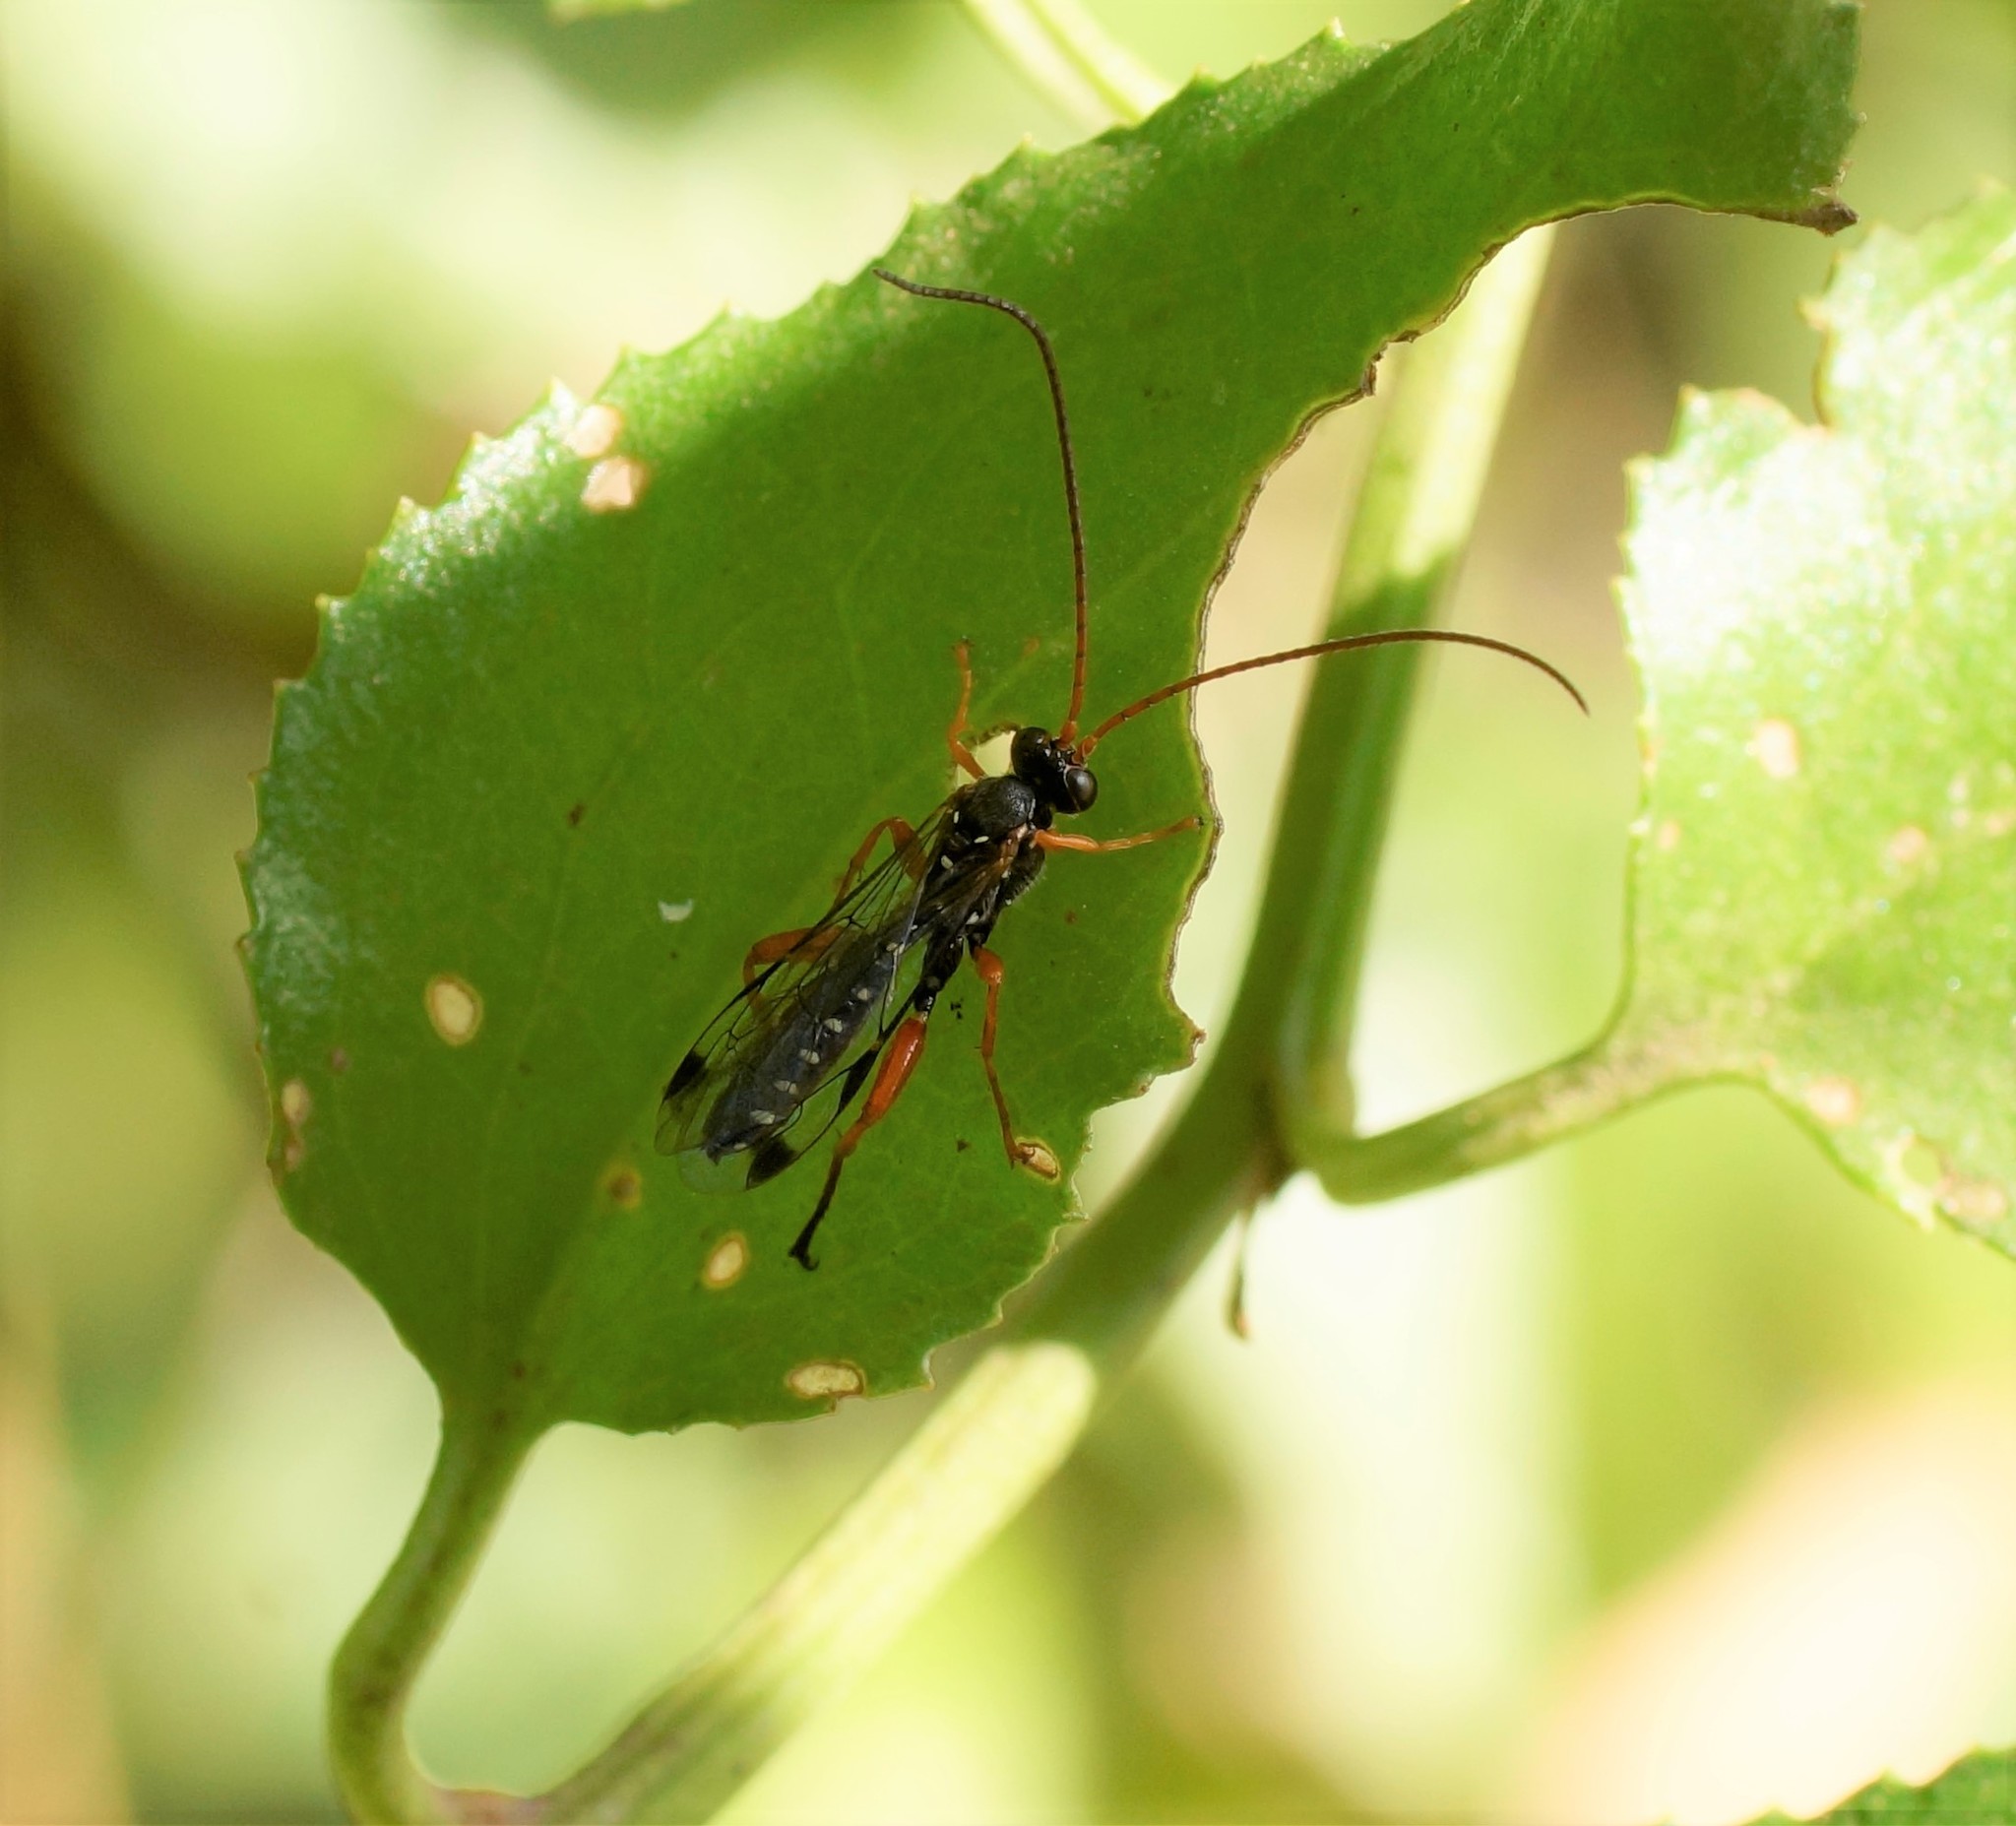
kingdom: Animalia
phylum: Arthropoda
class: Insecta
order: Hymenoptera
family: Ichneumonidae
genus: Echthromorpha
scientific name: Echthromorpha intricatoria
